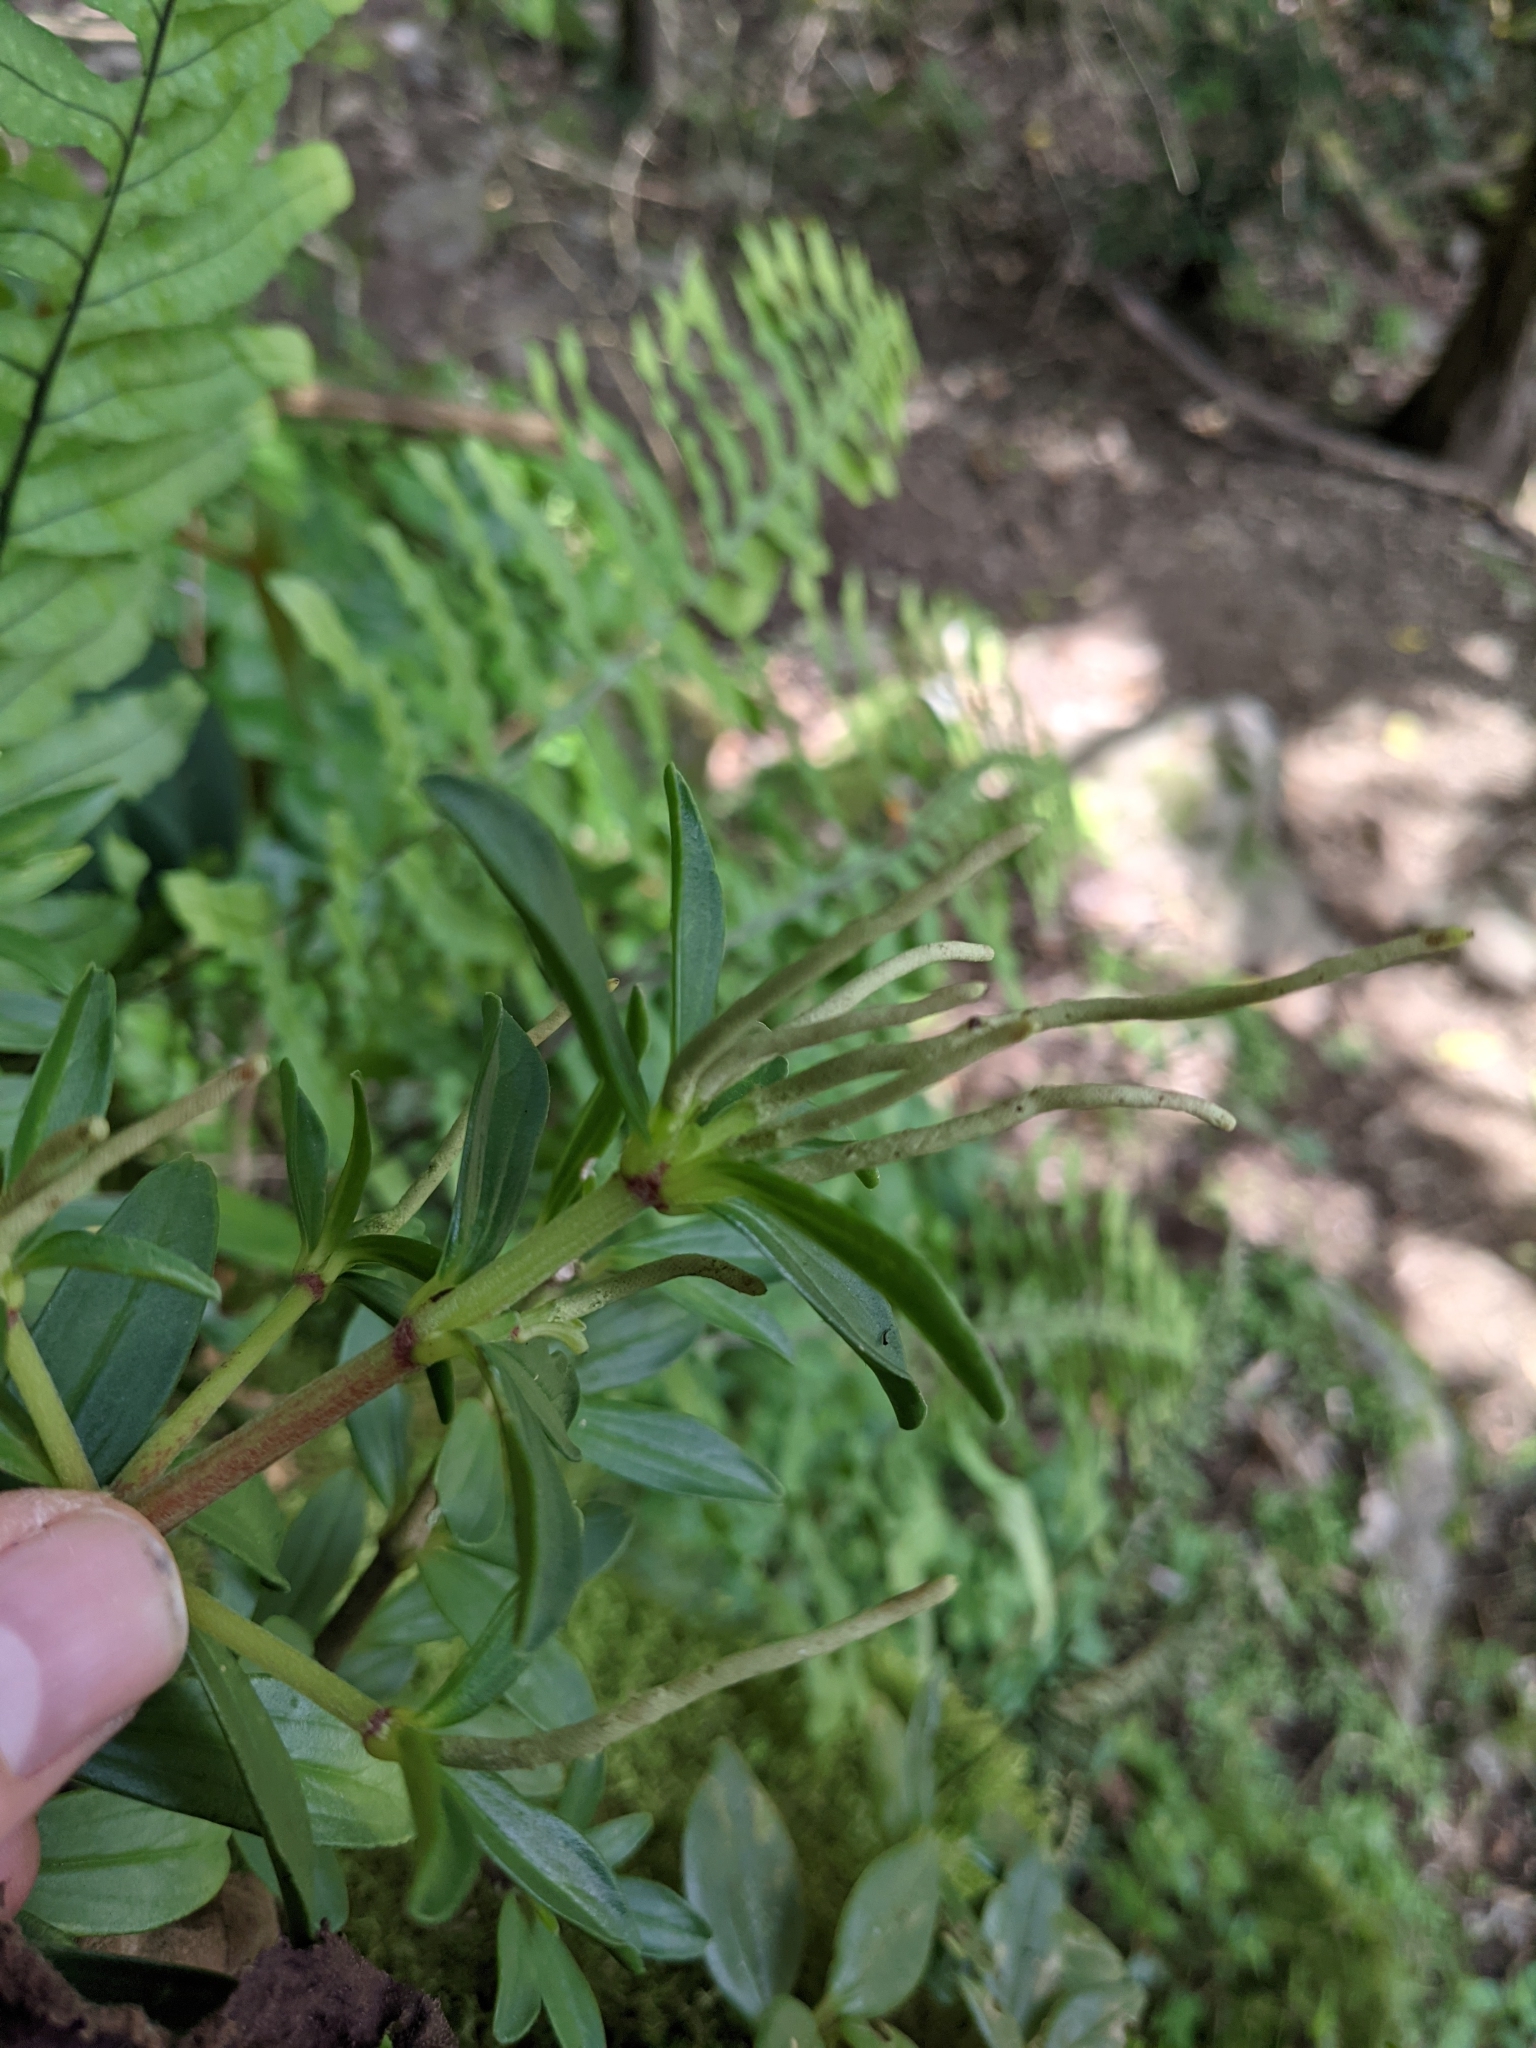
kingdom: Plantae
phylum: Tracheophyta
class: Magnoliopsida
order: Piperales
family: Piperaceae
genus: Peperomia
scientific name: Peperomia olivacea
